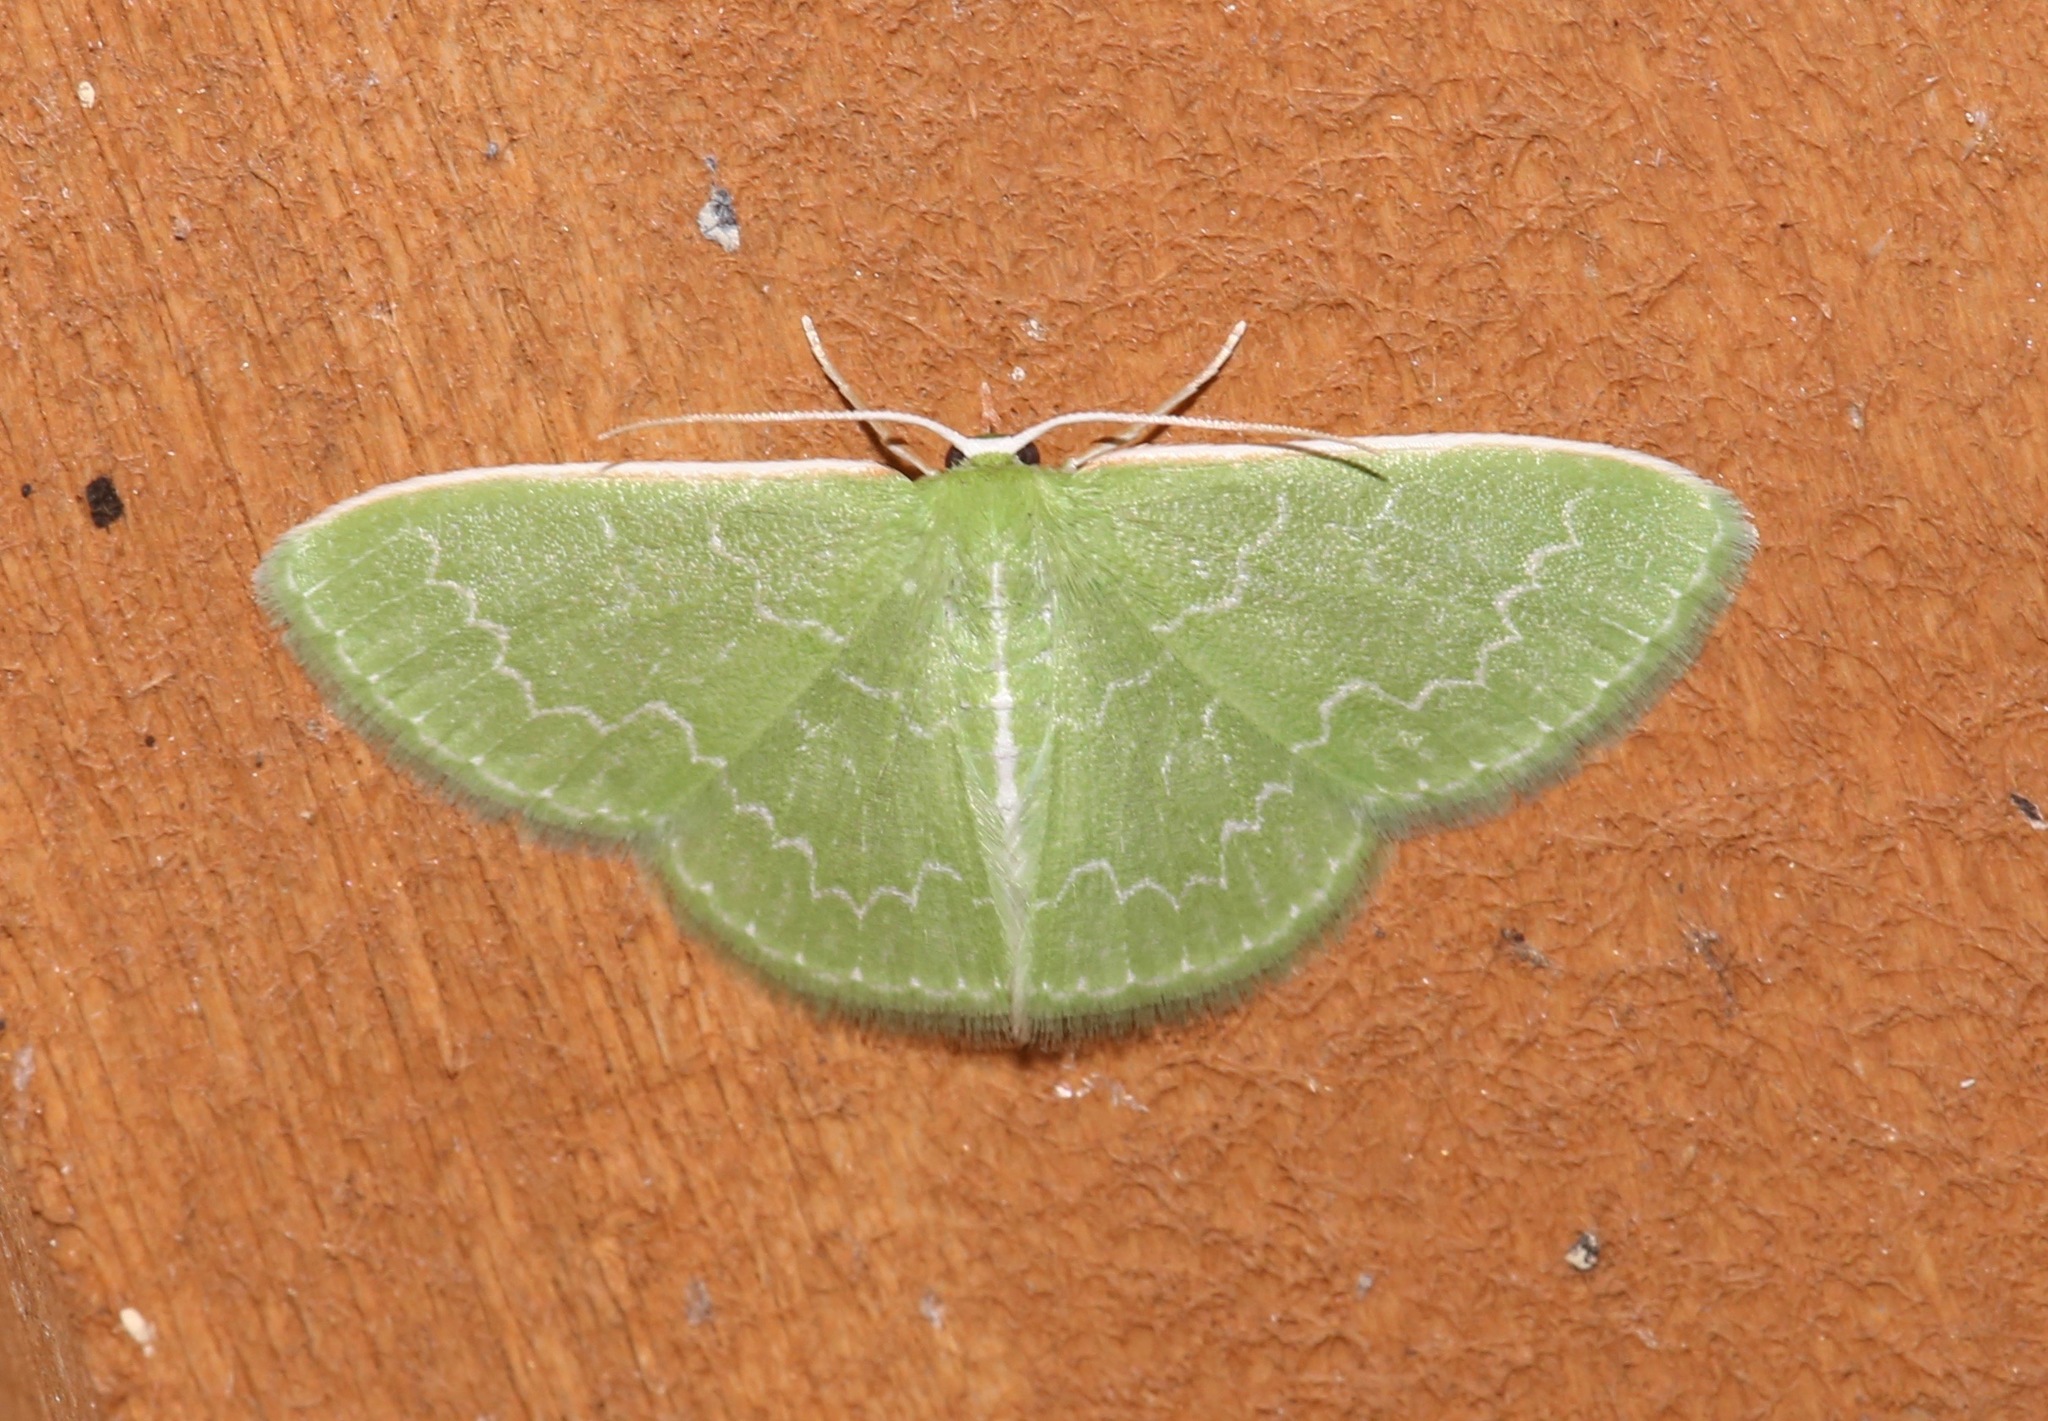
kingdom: Animalia
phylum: Arthropoda
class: Insecta
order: Lepidoptera
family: Geometridae
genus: Synchlora
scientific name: Synchlora frondaria
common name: Southern emerald
